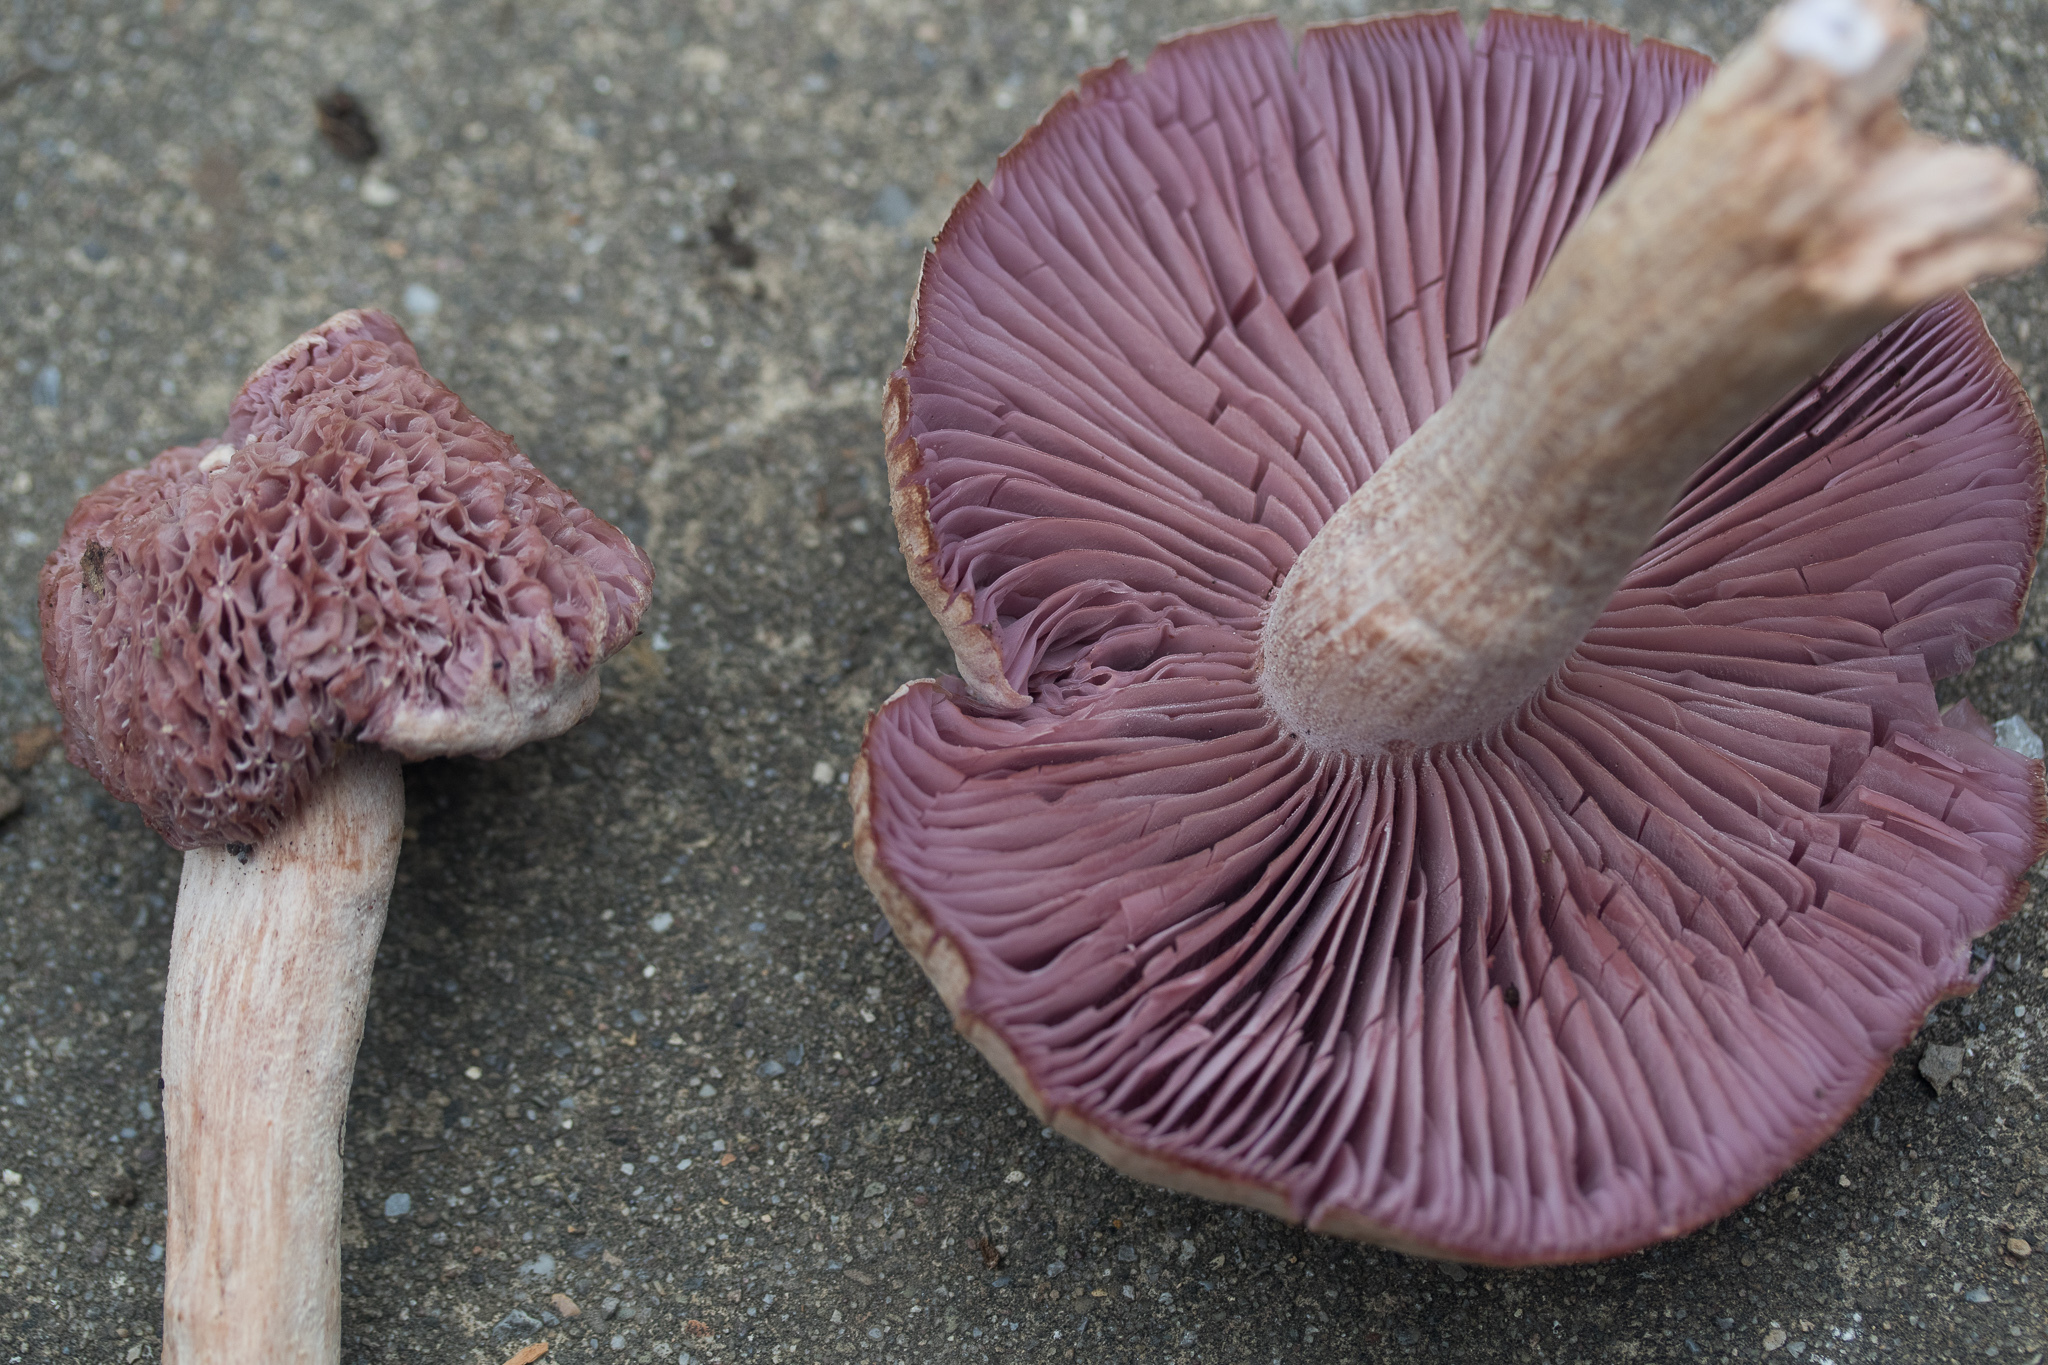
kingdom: Fungi
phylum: Basidiomycota
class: Agaricomycetes
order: Agaricales
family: Hydnangiaceae
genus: Laccaria
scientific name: Laccaria ochropurpurea
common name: Purple laccaria
